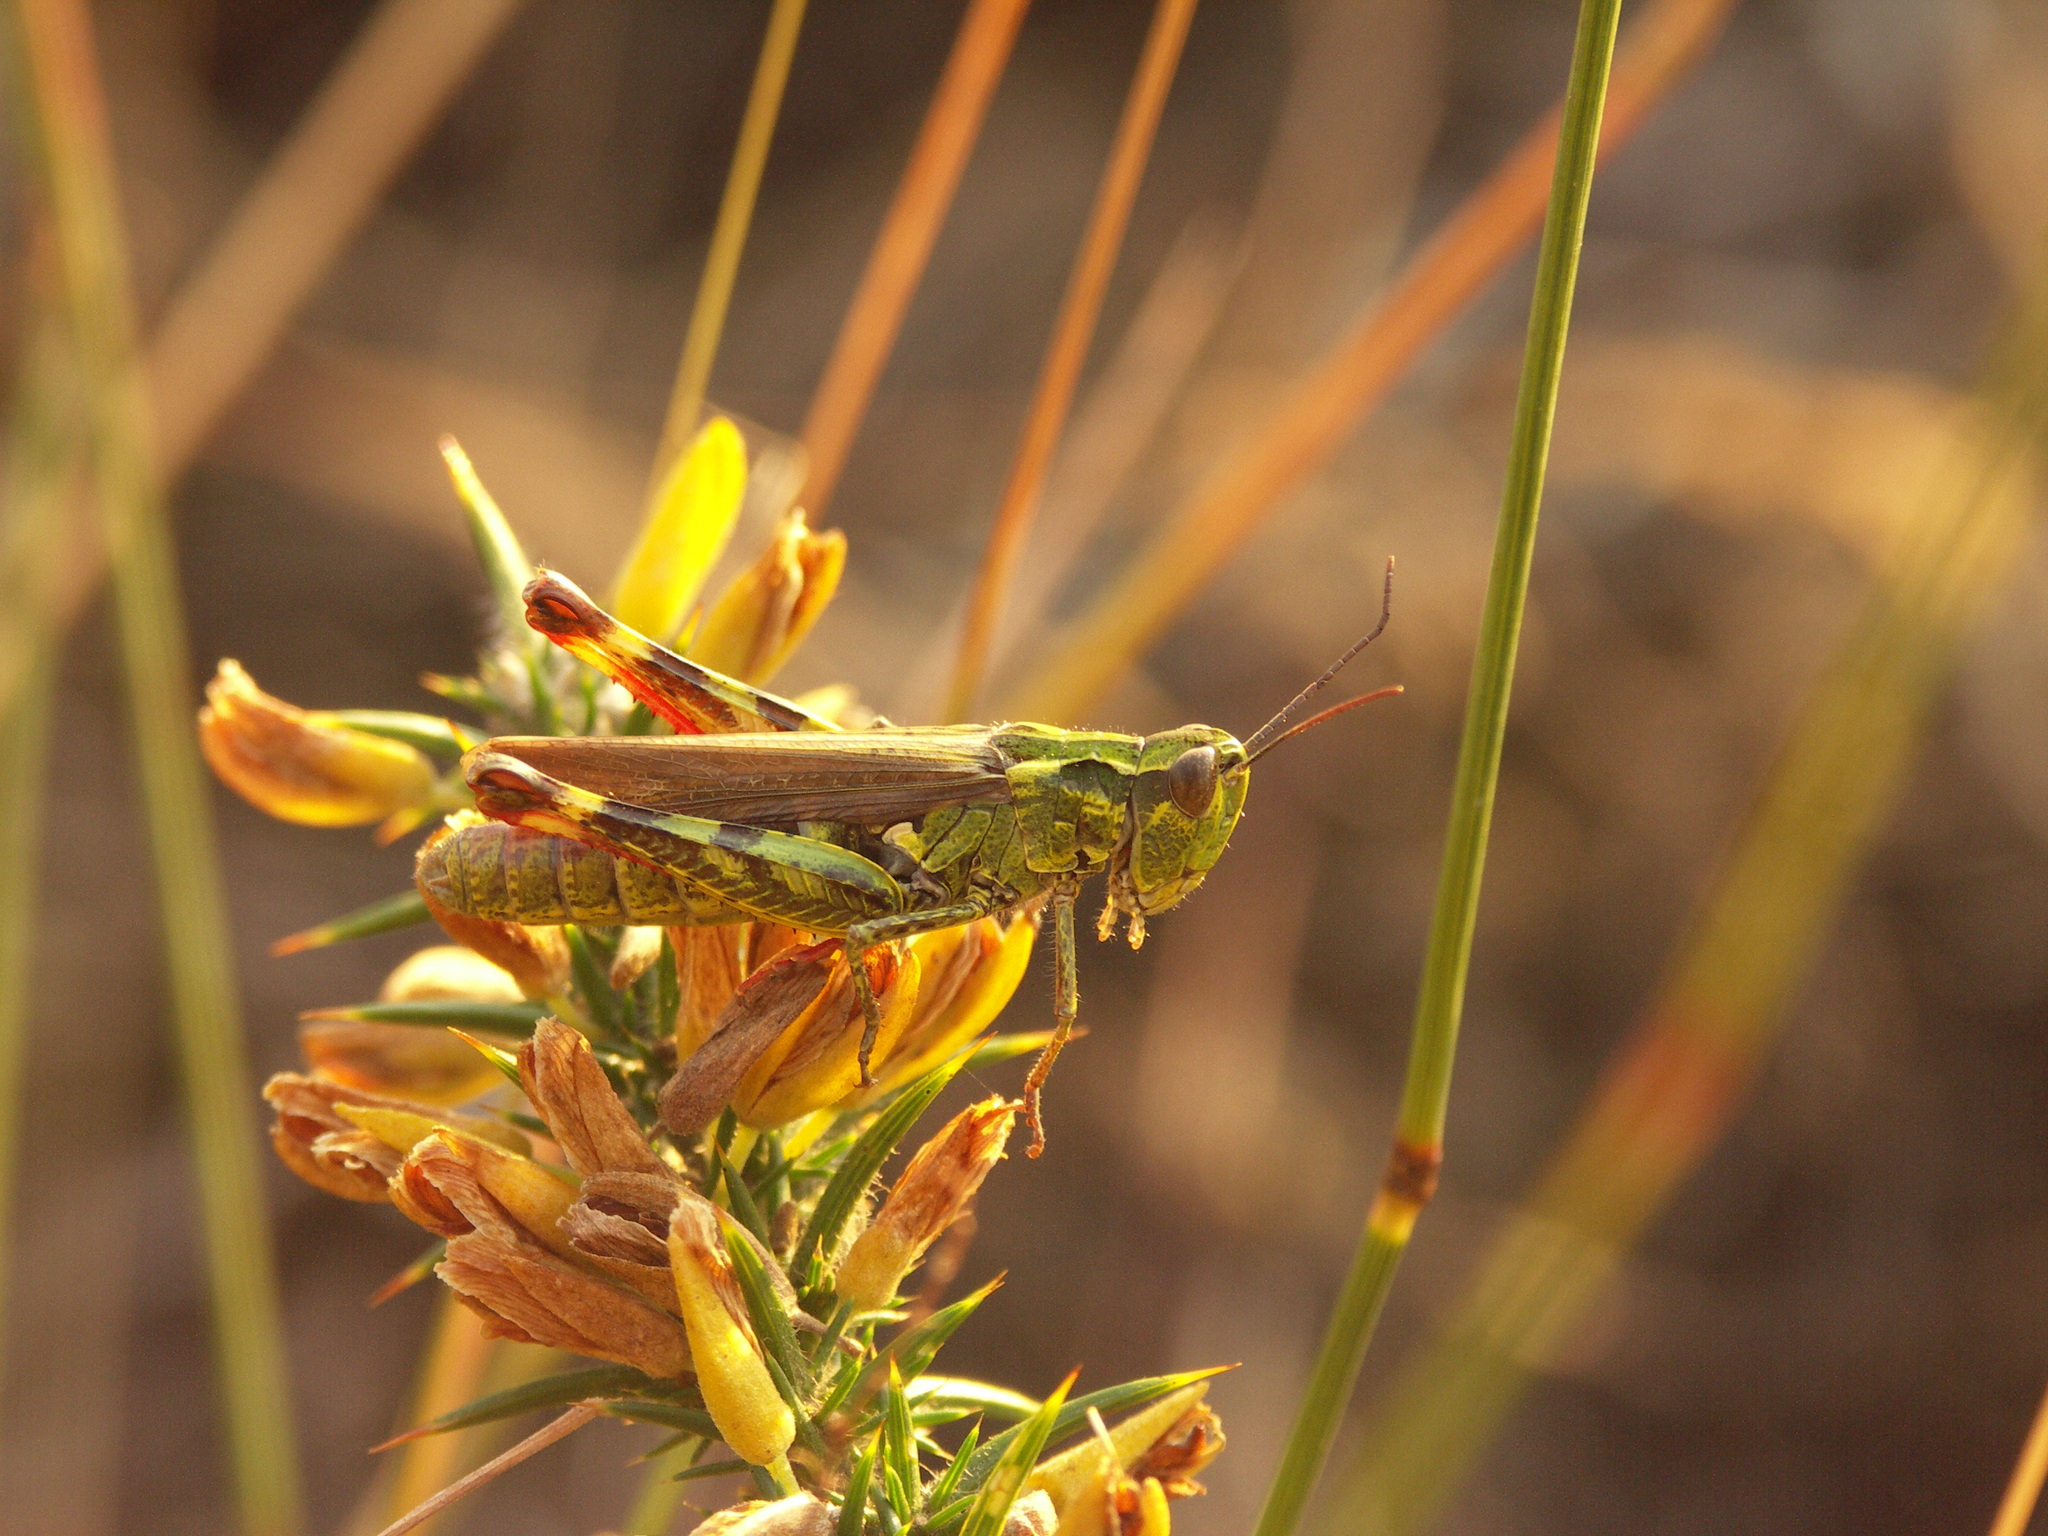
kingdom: Animalia
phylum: Arthropoda
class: Insecta
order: Orthoptera
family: Acrididae
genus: Chorthippus
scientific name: Chorthippus binotatus
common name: Two-marked grasshopper
